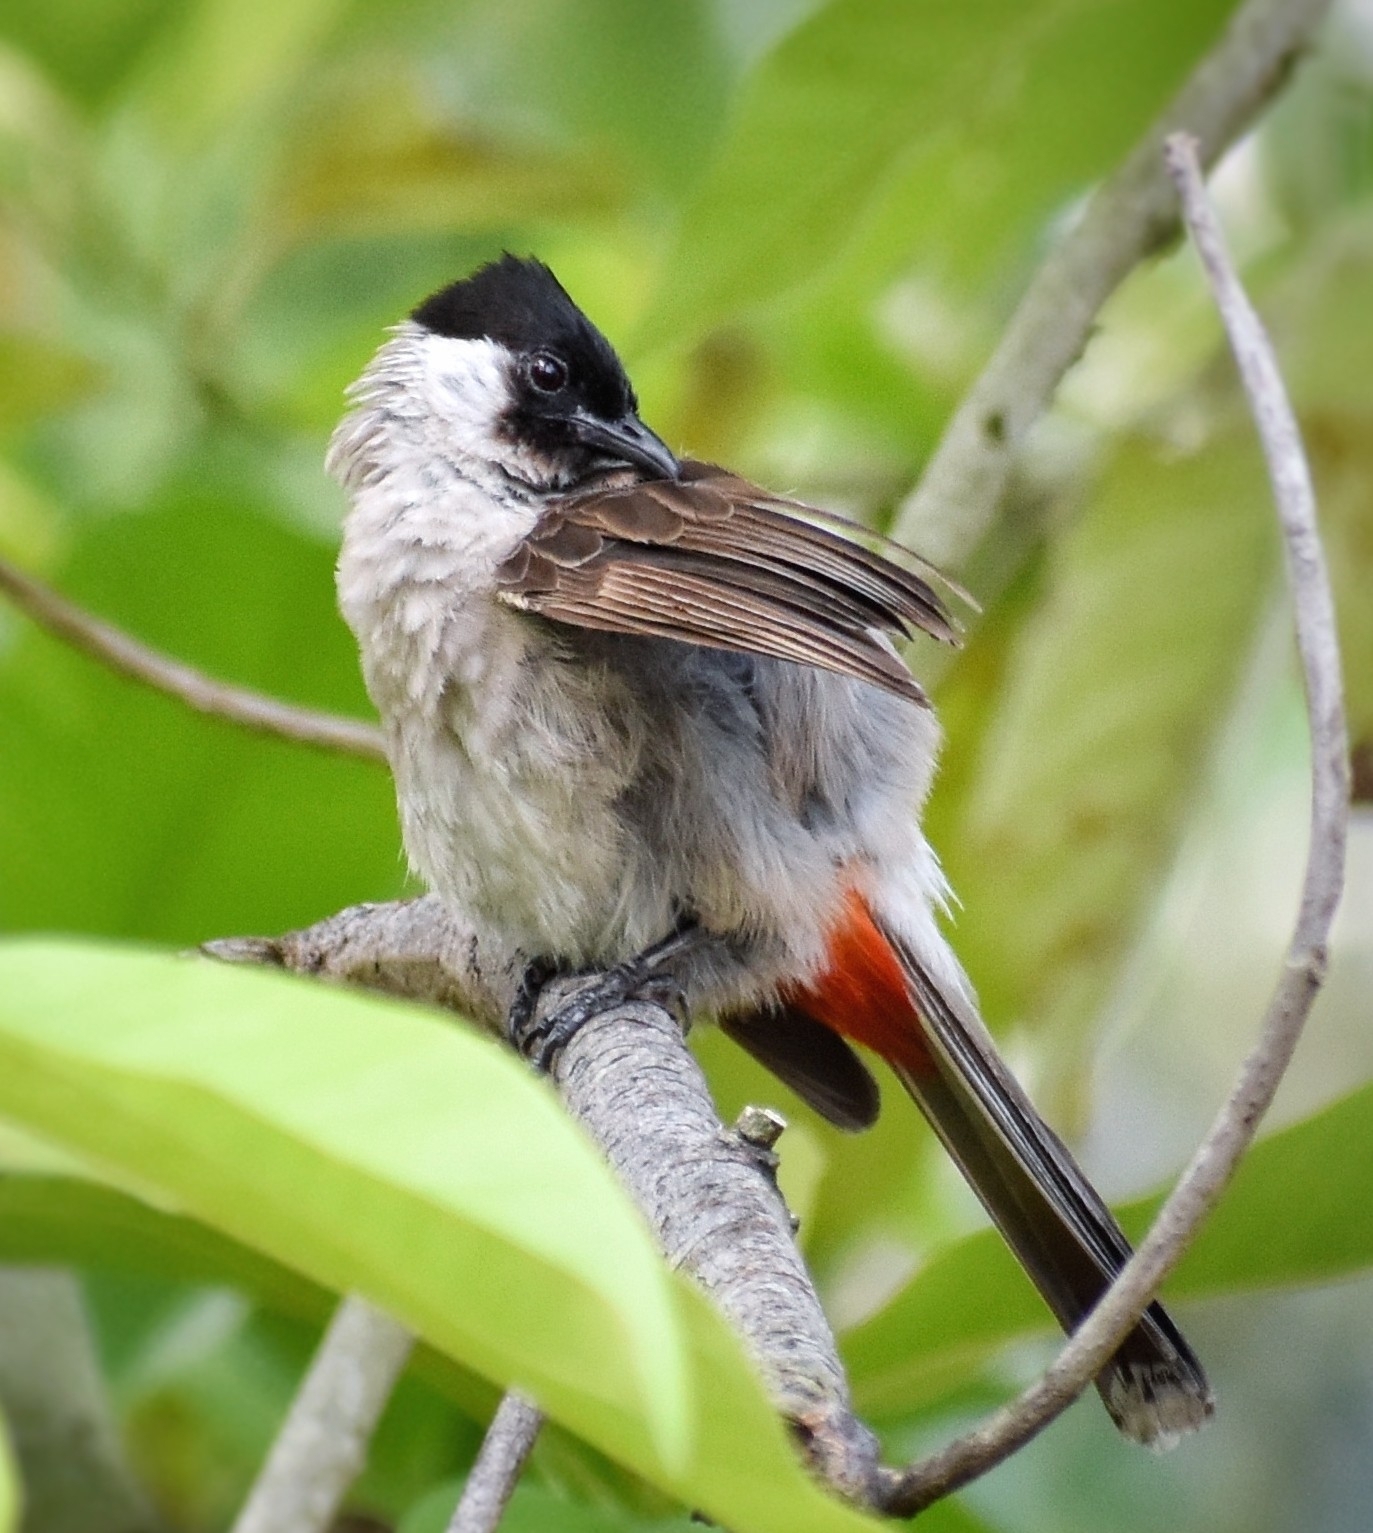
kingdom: Animalia
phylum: Chordata
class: Aves
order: Passeriformes
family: Pycnonotidae
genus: Pycnonotus
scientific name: Pycnonotus aurigaster
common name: Sooty-headed bulbul
